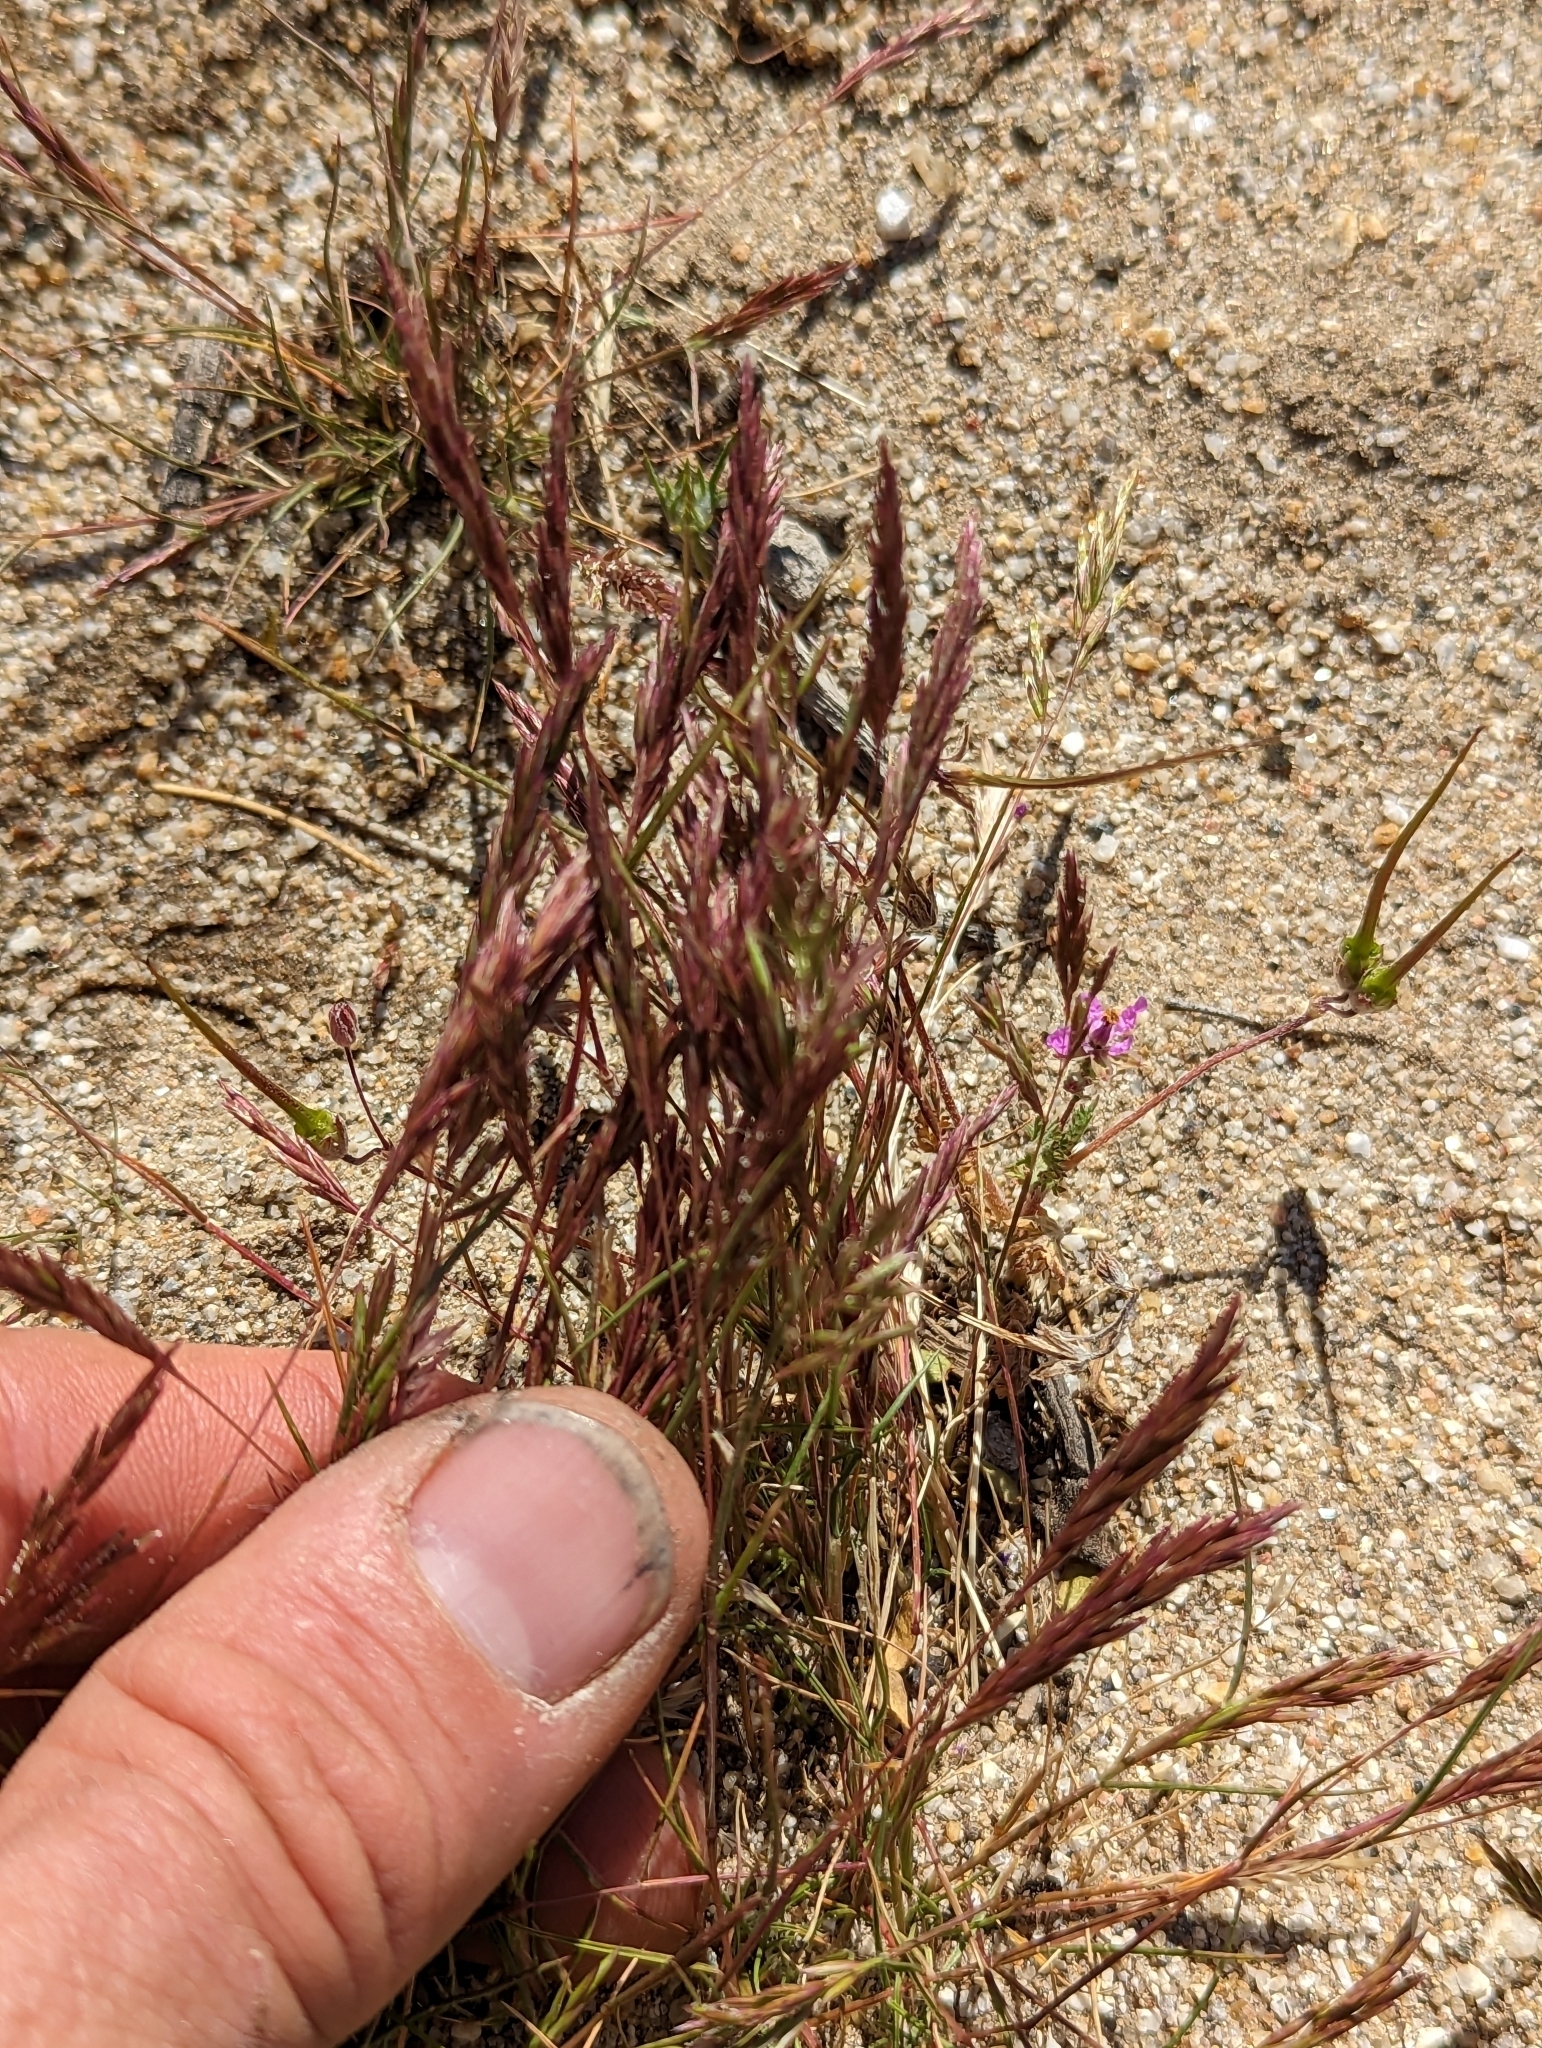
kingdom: Plantae
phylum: Tracheophyta
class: Liliopsida
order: Poales
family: Poaceae
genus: Schismus
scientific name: Schismus arabicus
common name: Arabian schismus
